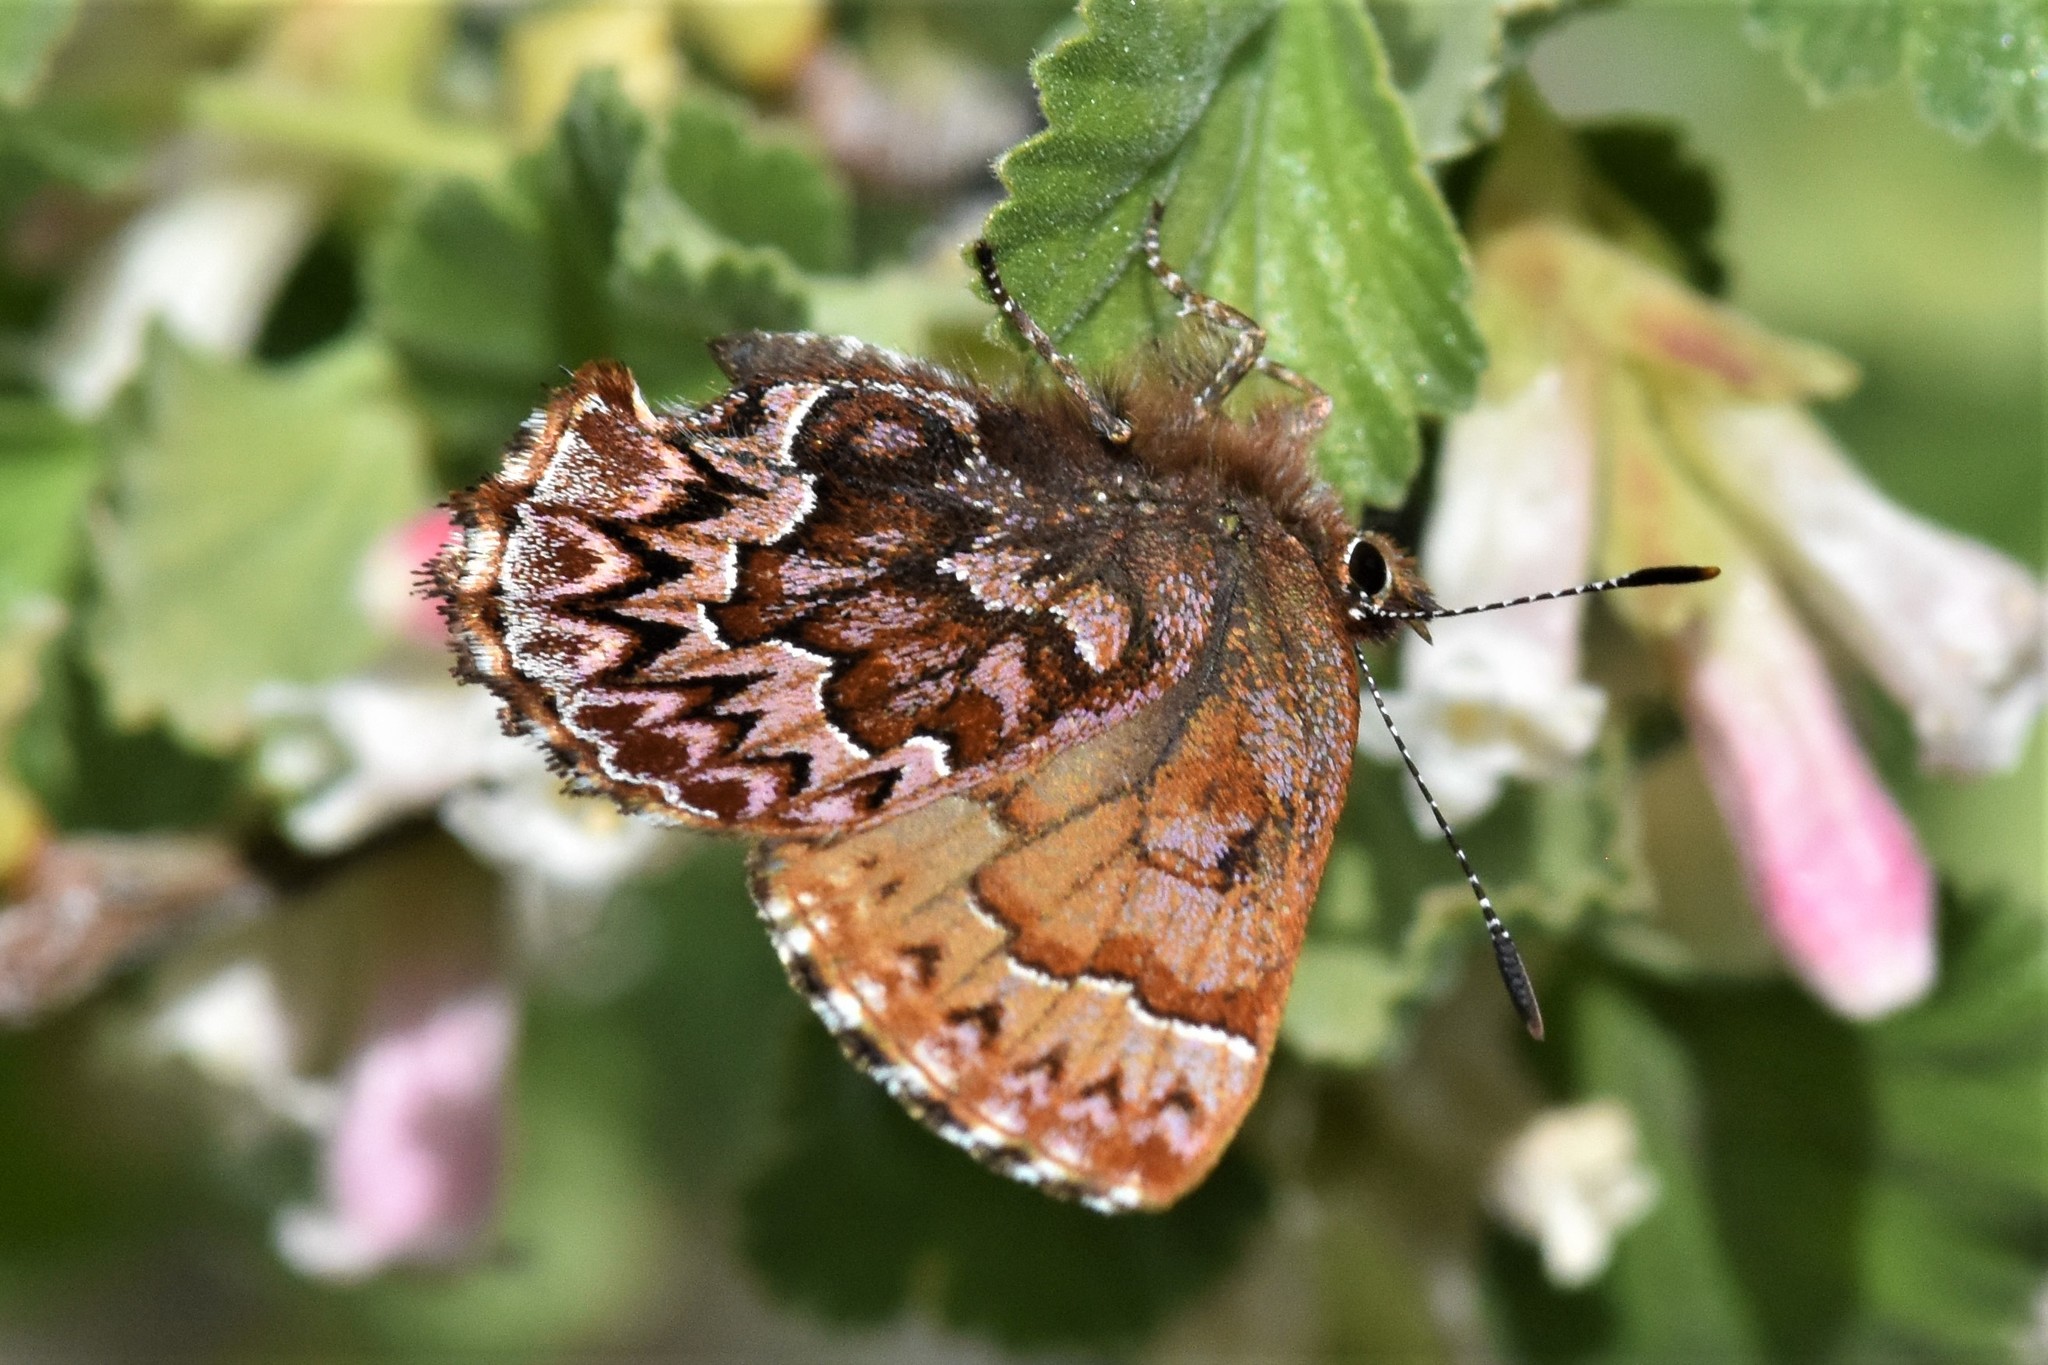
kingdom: Animalia
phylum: Arthropoda
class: Insecta
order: Lepidoptera
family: Lycaenidae
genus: Incisalia
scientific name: Incisalia eryphon
